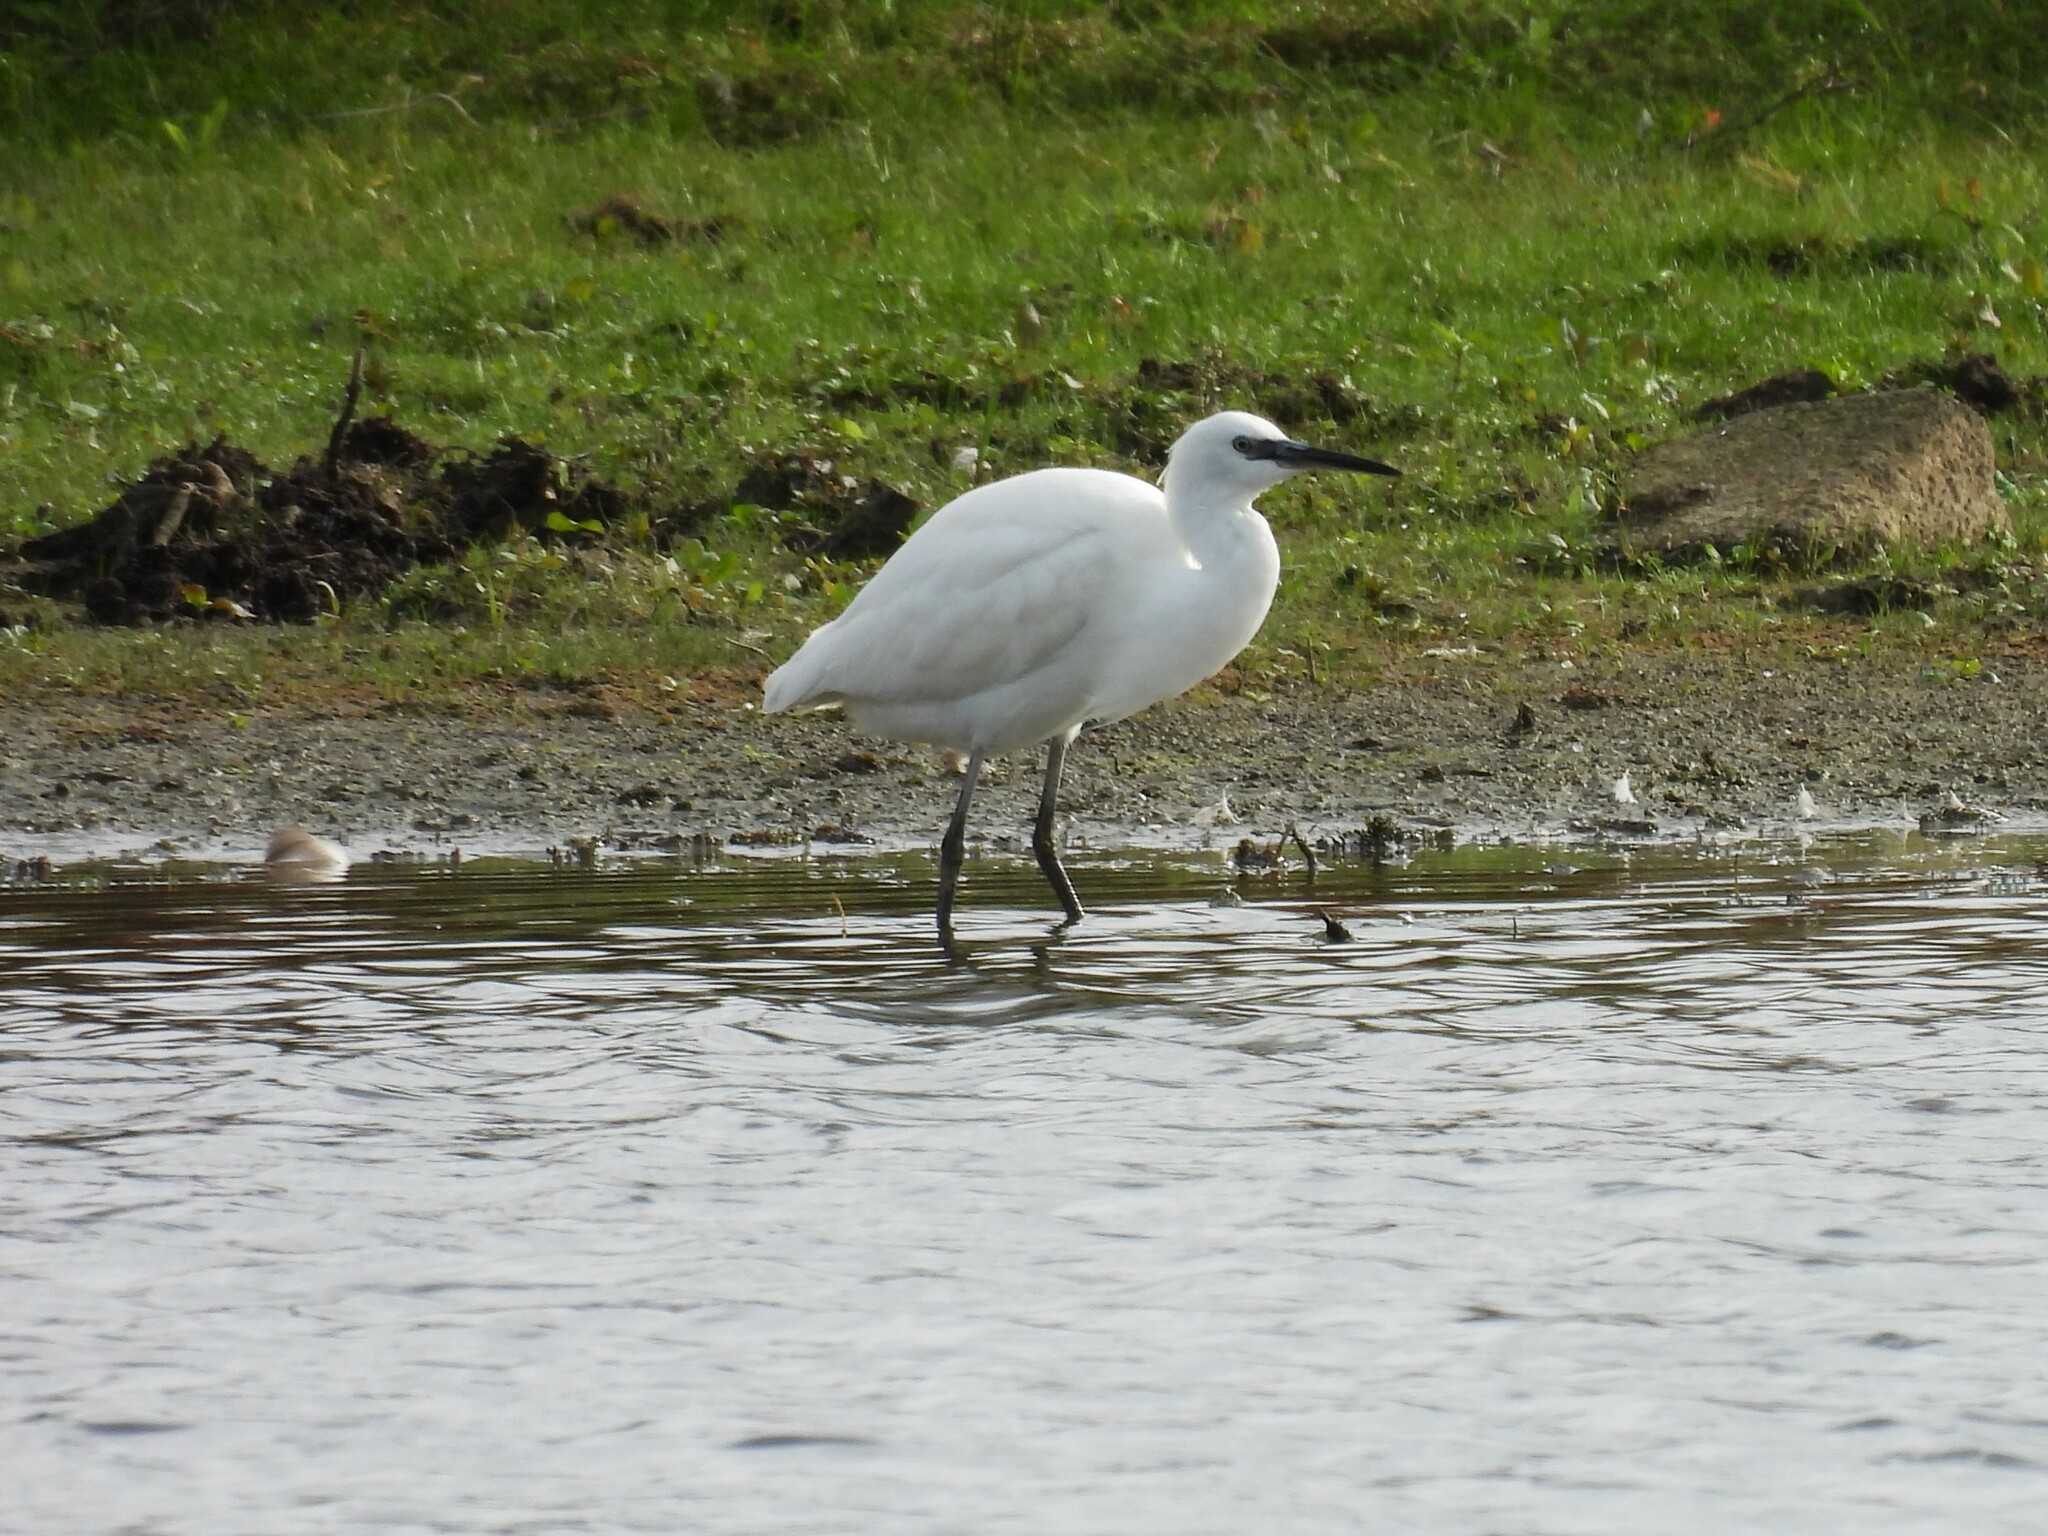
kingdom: Animalia
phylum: Chordata
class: Aves
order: Pelecaniformes
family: Ardeidae
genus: Egretta
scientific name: Egretta garzetta
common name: Little egret
